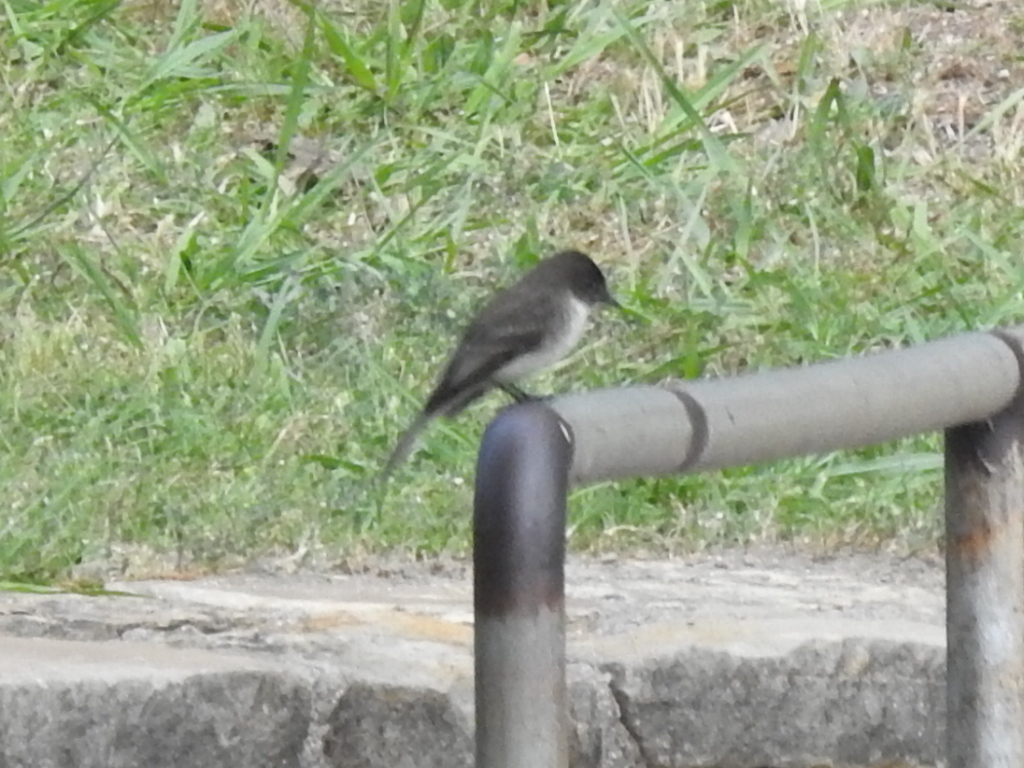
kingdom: Animalia
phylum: Chordata
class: Aves
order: Passeriformes
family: Tyrannidae
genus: Sayornis
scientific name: Sayornis phoebe
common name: Eastern phoebe
